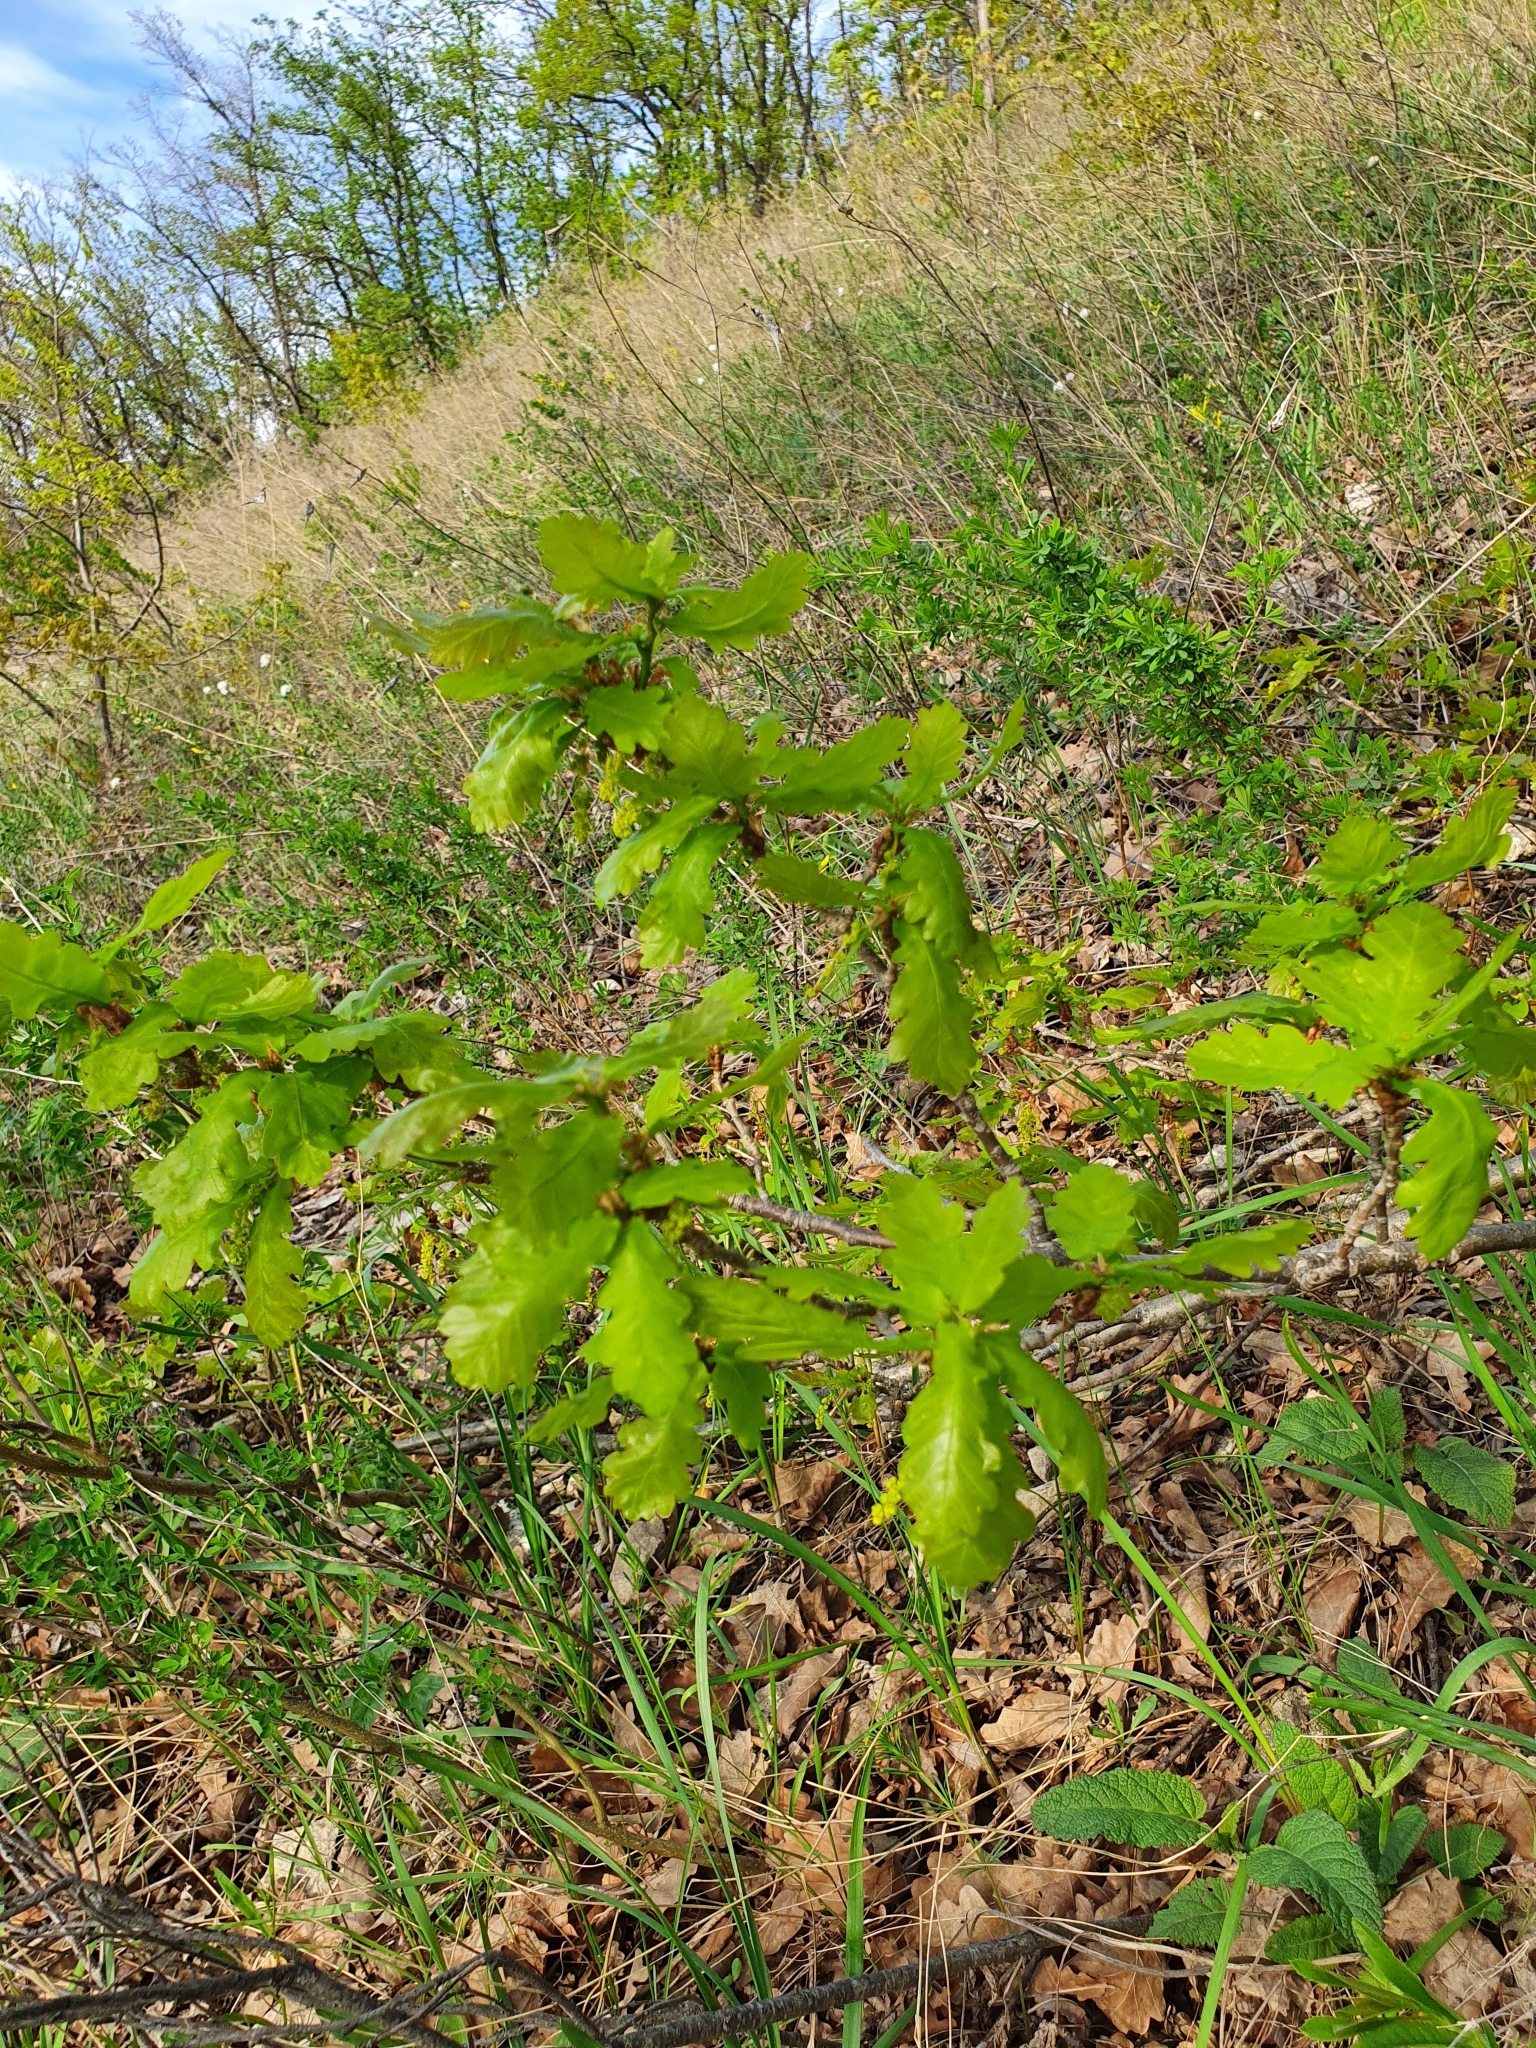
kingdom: Plantae
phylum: Tracheophyta
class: Magnoliopsida
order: Fagales
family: Fagaceae
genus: Quercus
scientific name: Quercus robur
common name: Pedunculate oak
